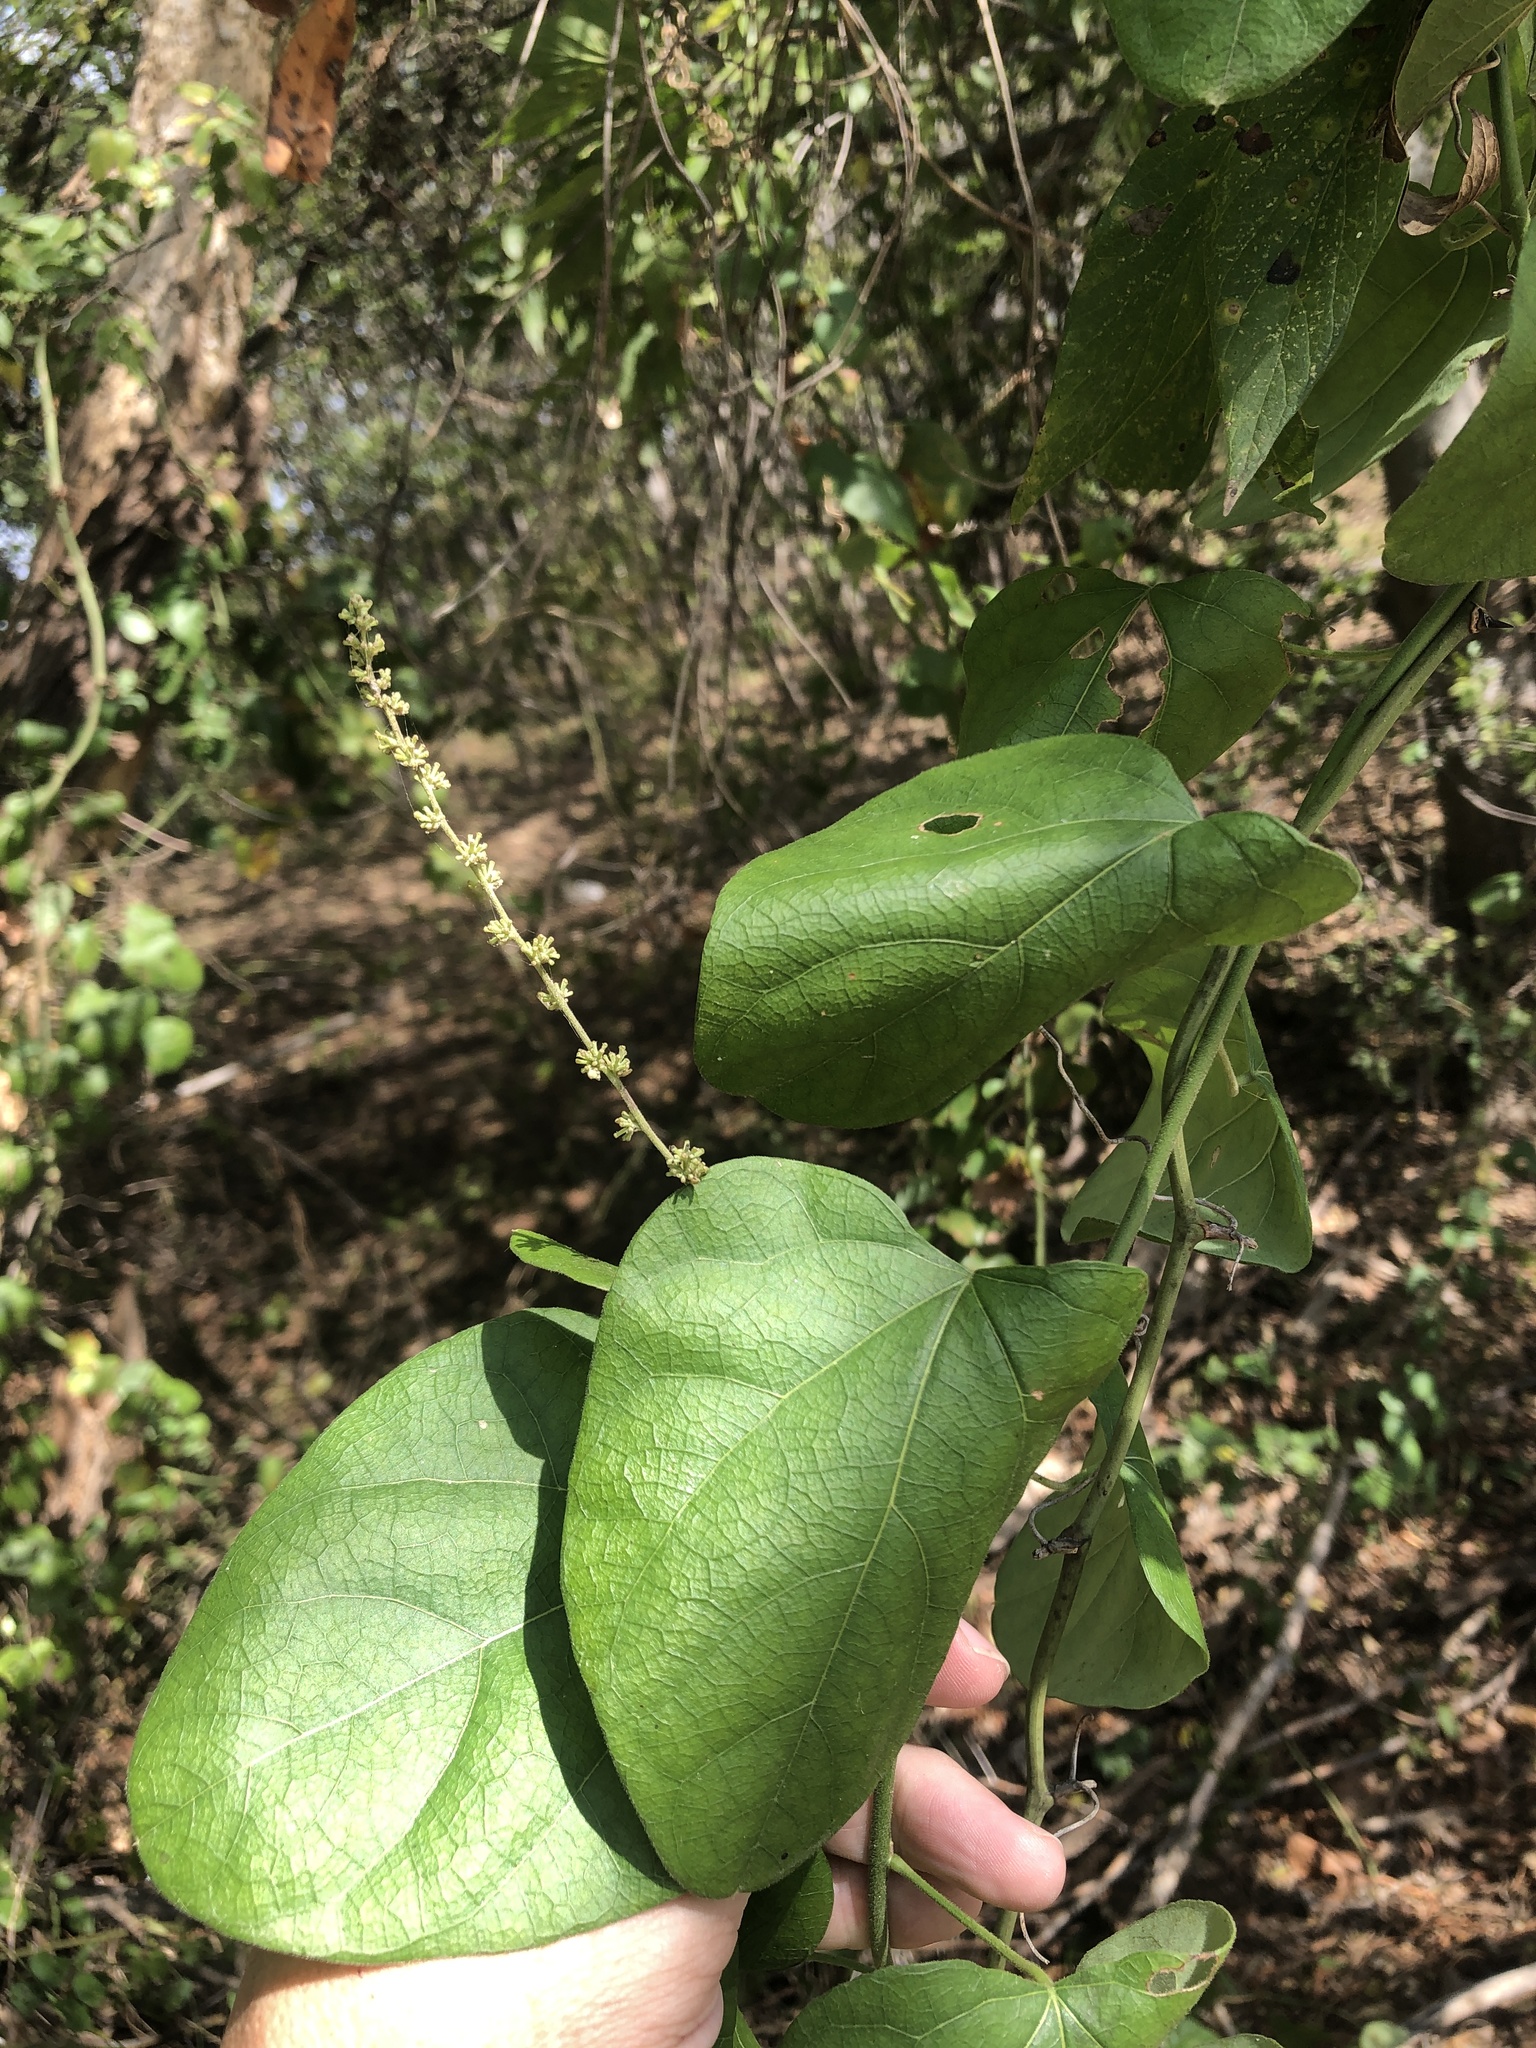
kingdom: Plantae
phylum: Tracheophyta
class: Magnoliopsida
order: Ranunculales
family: Menispermaceae
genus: Cocculus
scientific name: Cocculus carolinus
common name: Carolina moonseed
